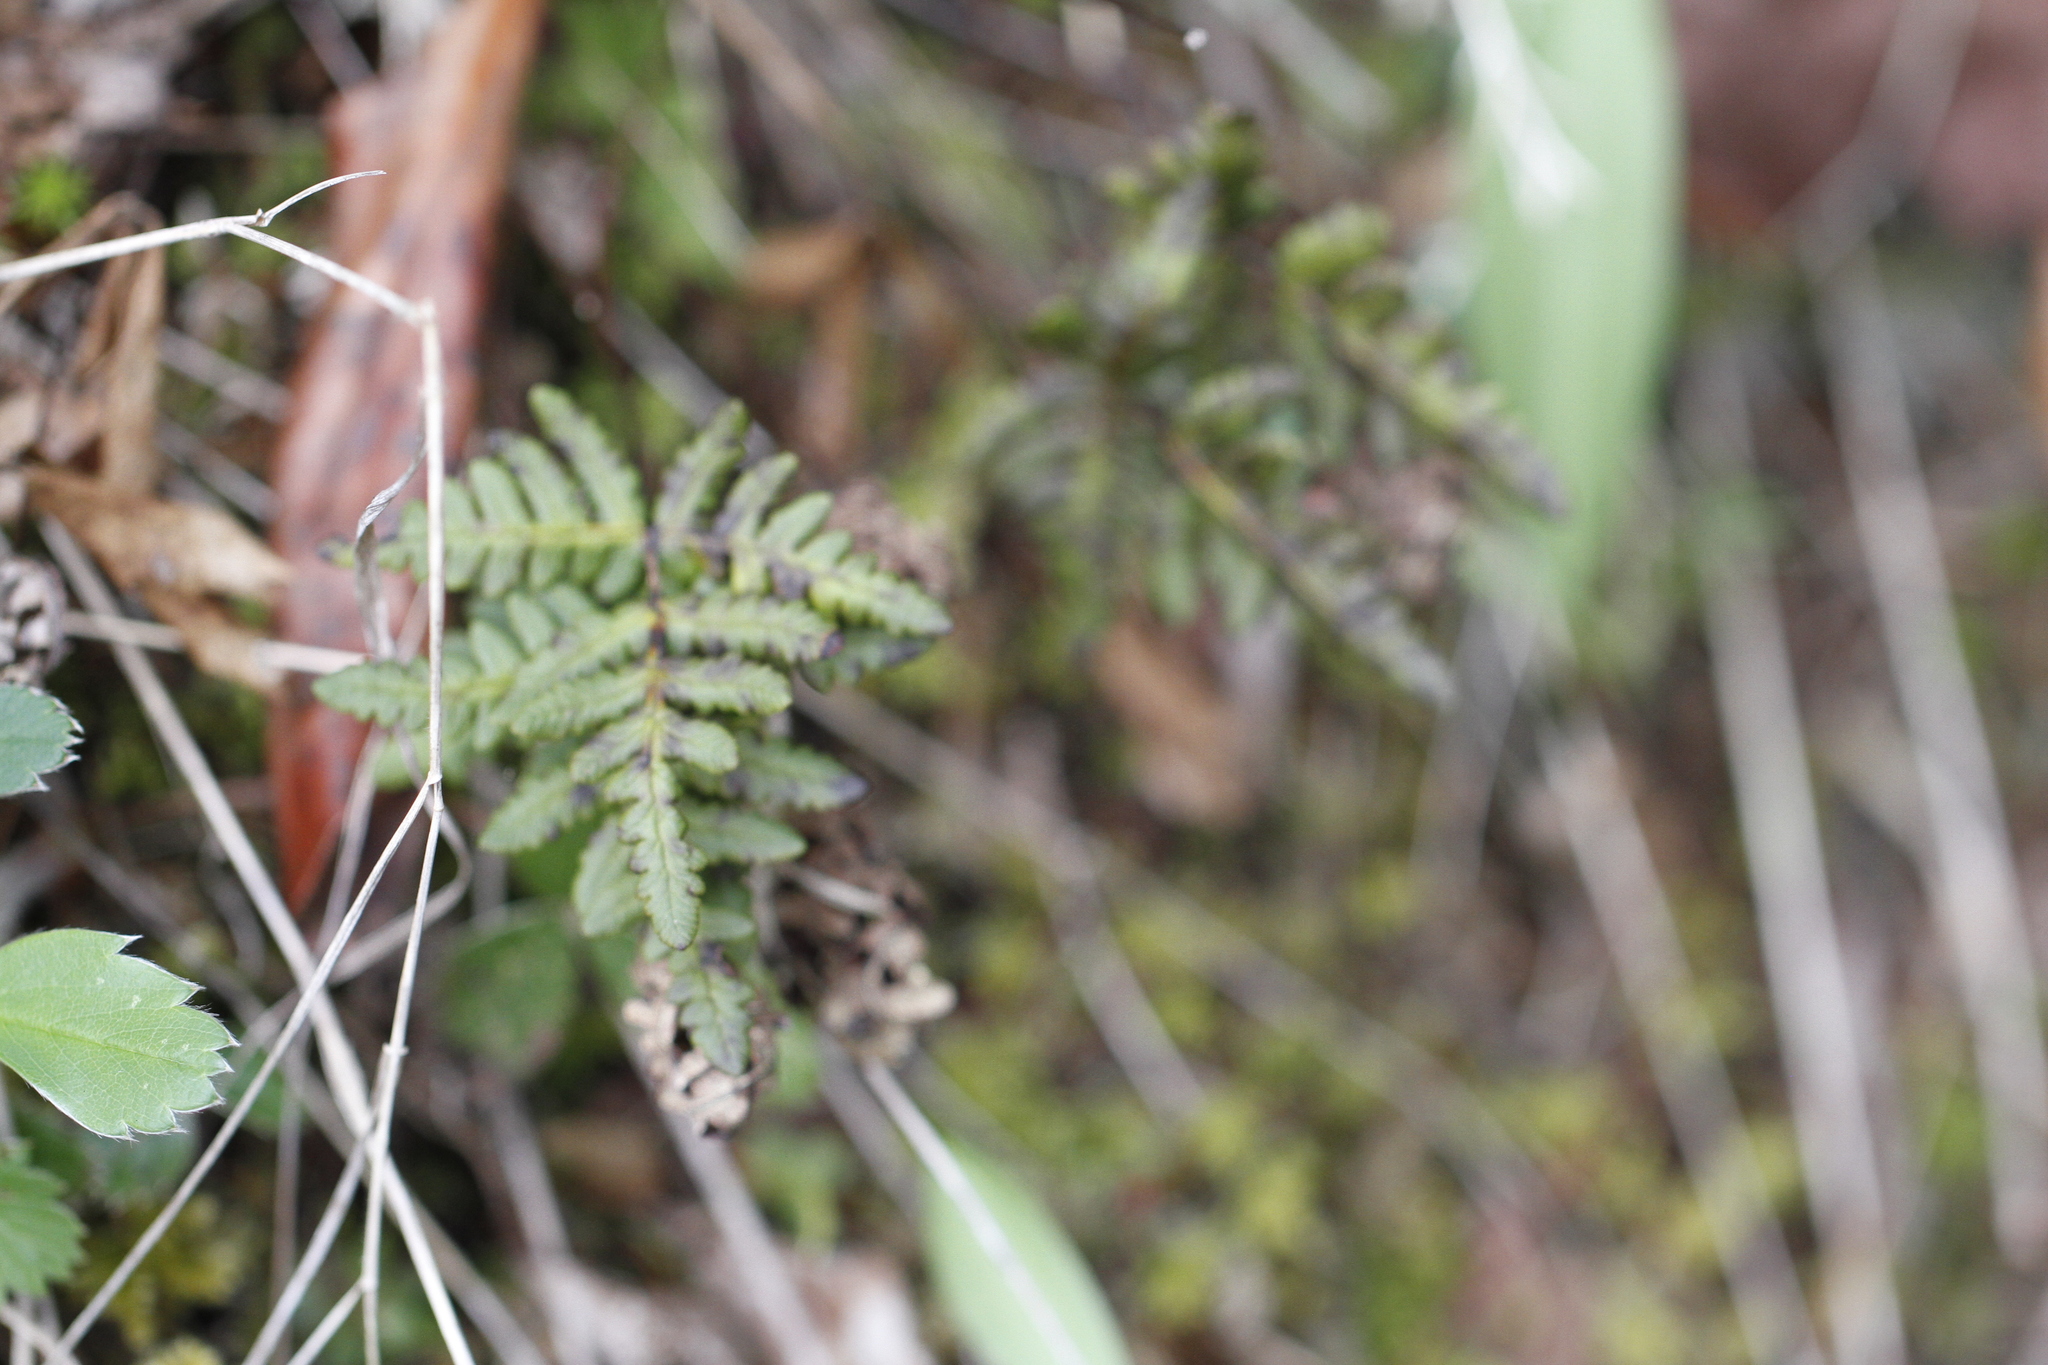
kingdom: Plantae
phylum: Tracheophyta
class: Polypodiopsida
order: Polypodiales
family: Pteridaceae
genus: Pentagramma
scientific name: Pentagramma triangularis
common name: Gold fern
